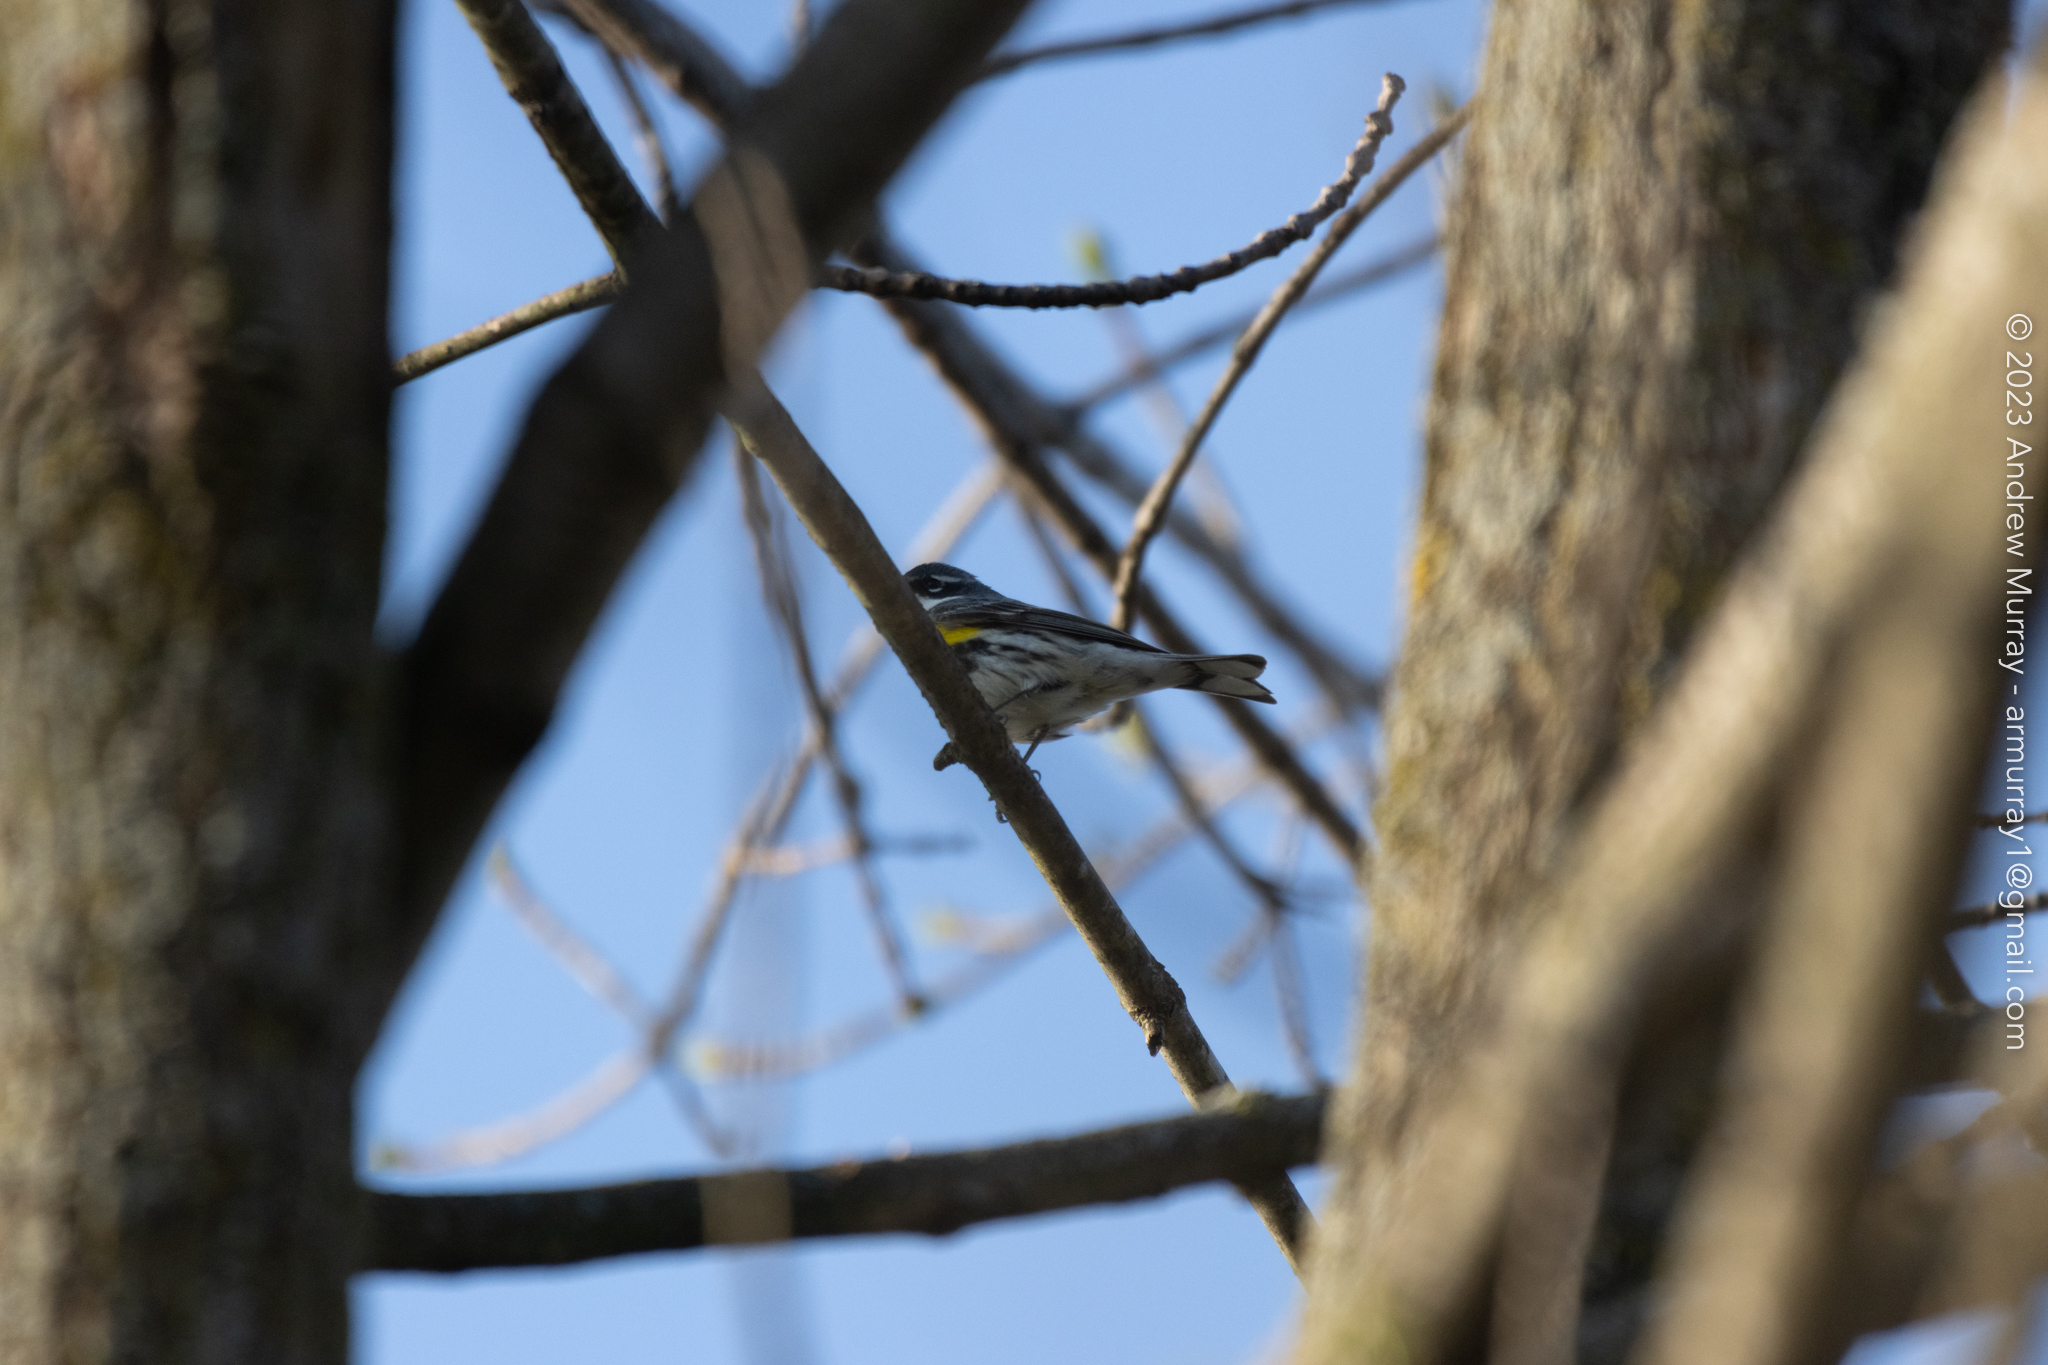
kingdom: Animalia
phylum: Chordata
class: Aves
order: Passeriformes
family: Parulidae
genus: Setophaga
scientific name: Setophaga coronata
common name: Myrtle warbler
